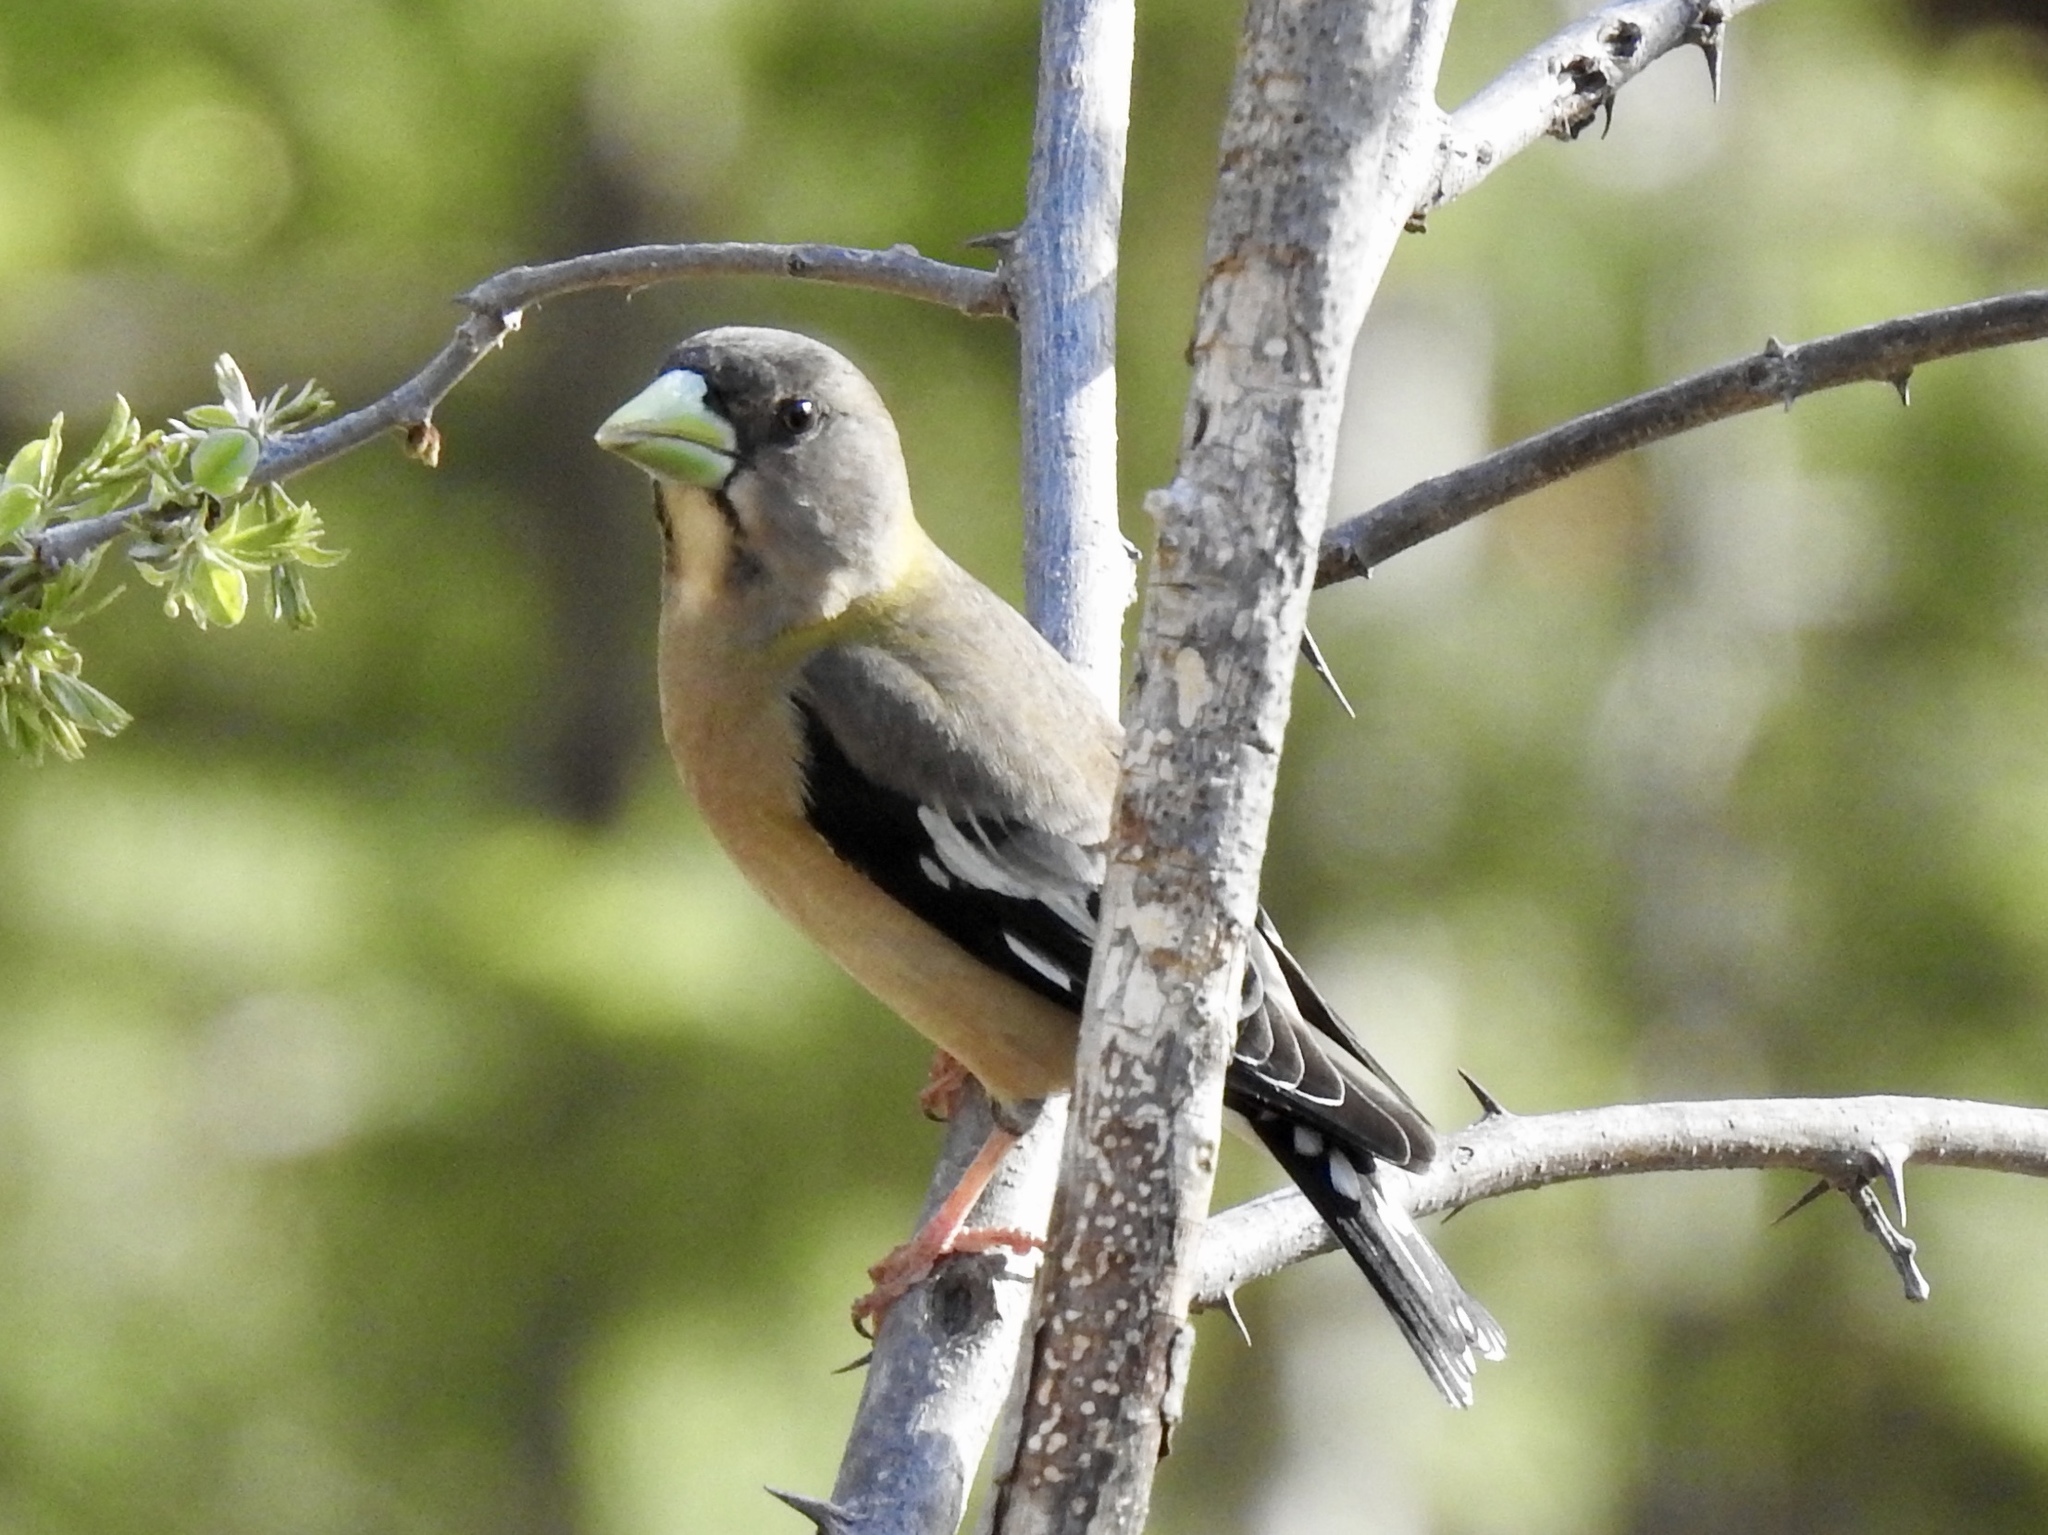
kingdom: Animalia
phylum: Chordata
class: Aves
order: Passeriformes
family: Fringillidae
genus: Hesperiphona
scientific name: Hesperiphona vespertina
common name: Evening grosbeak
